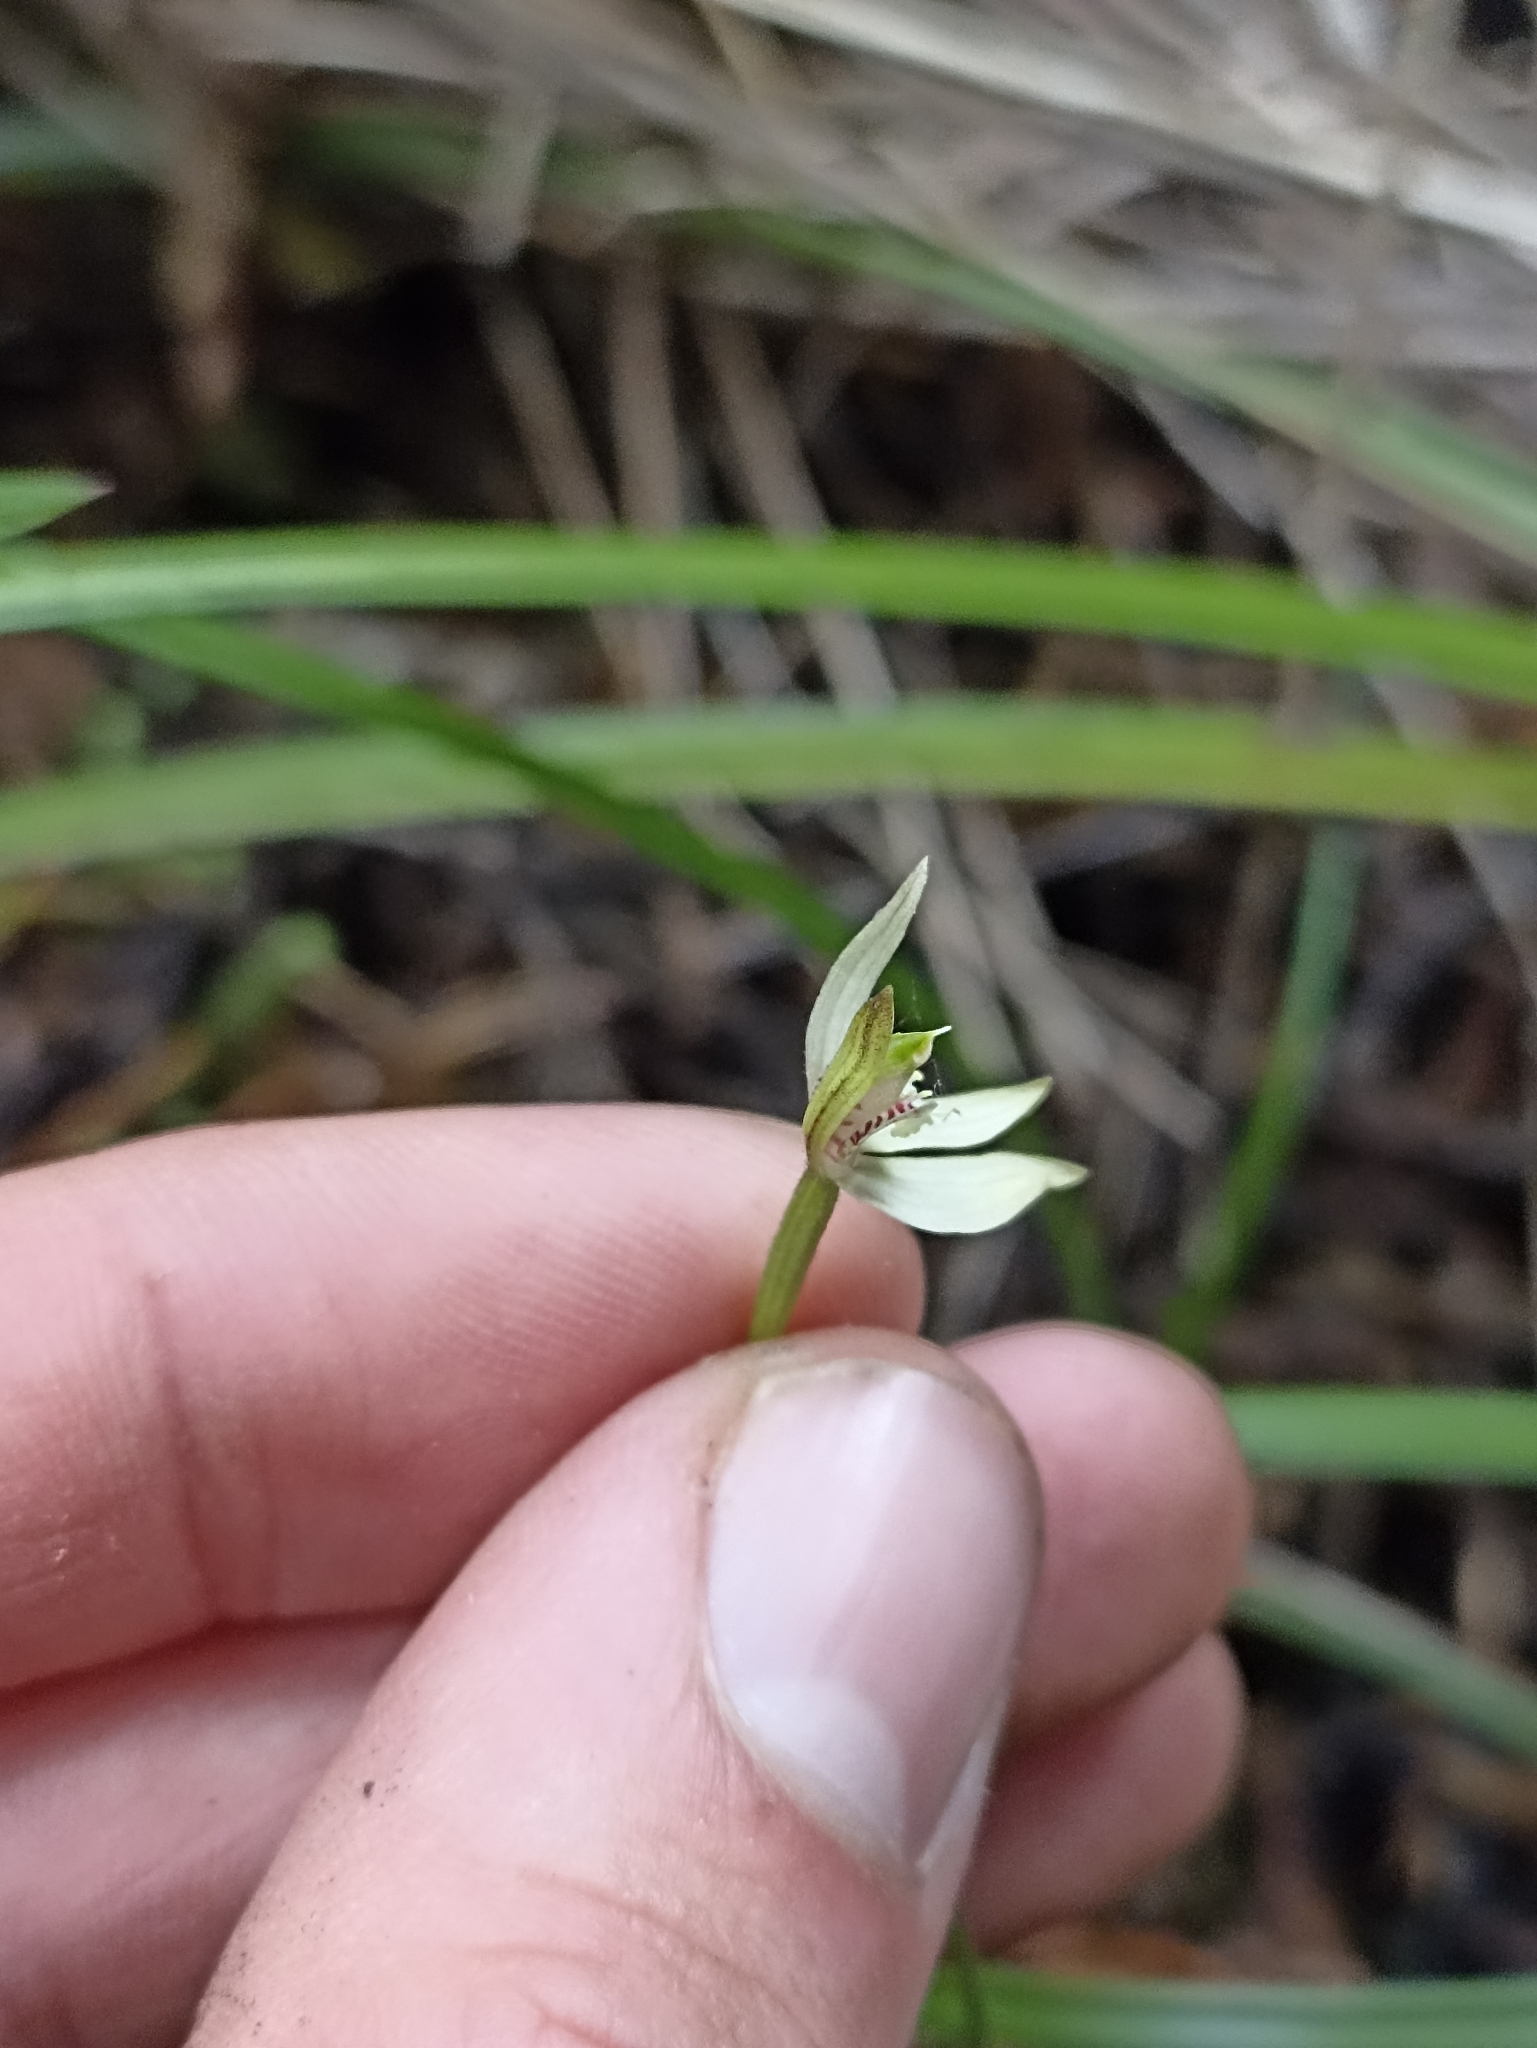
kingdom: Plantae
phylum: Tracheophyta
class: Liliopsida
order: Asparagales
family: Orchidaceae
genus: Caladenia
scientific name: Caladenia chlorostyla
